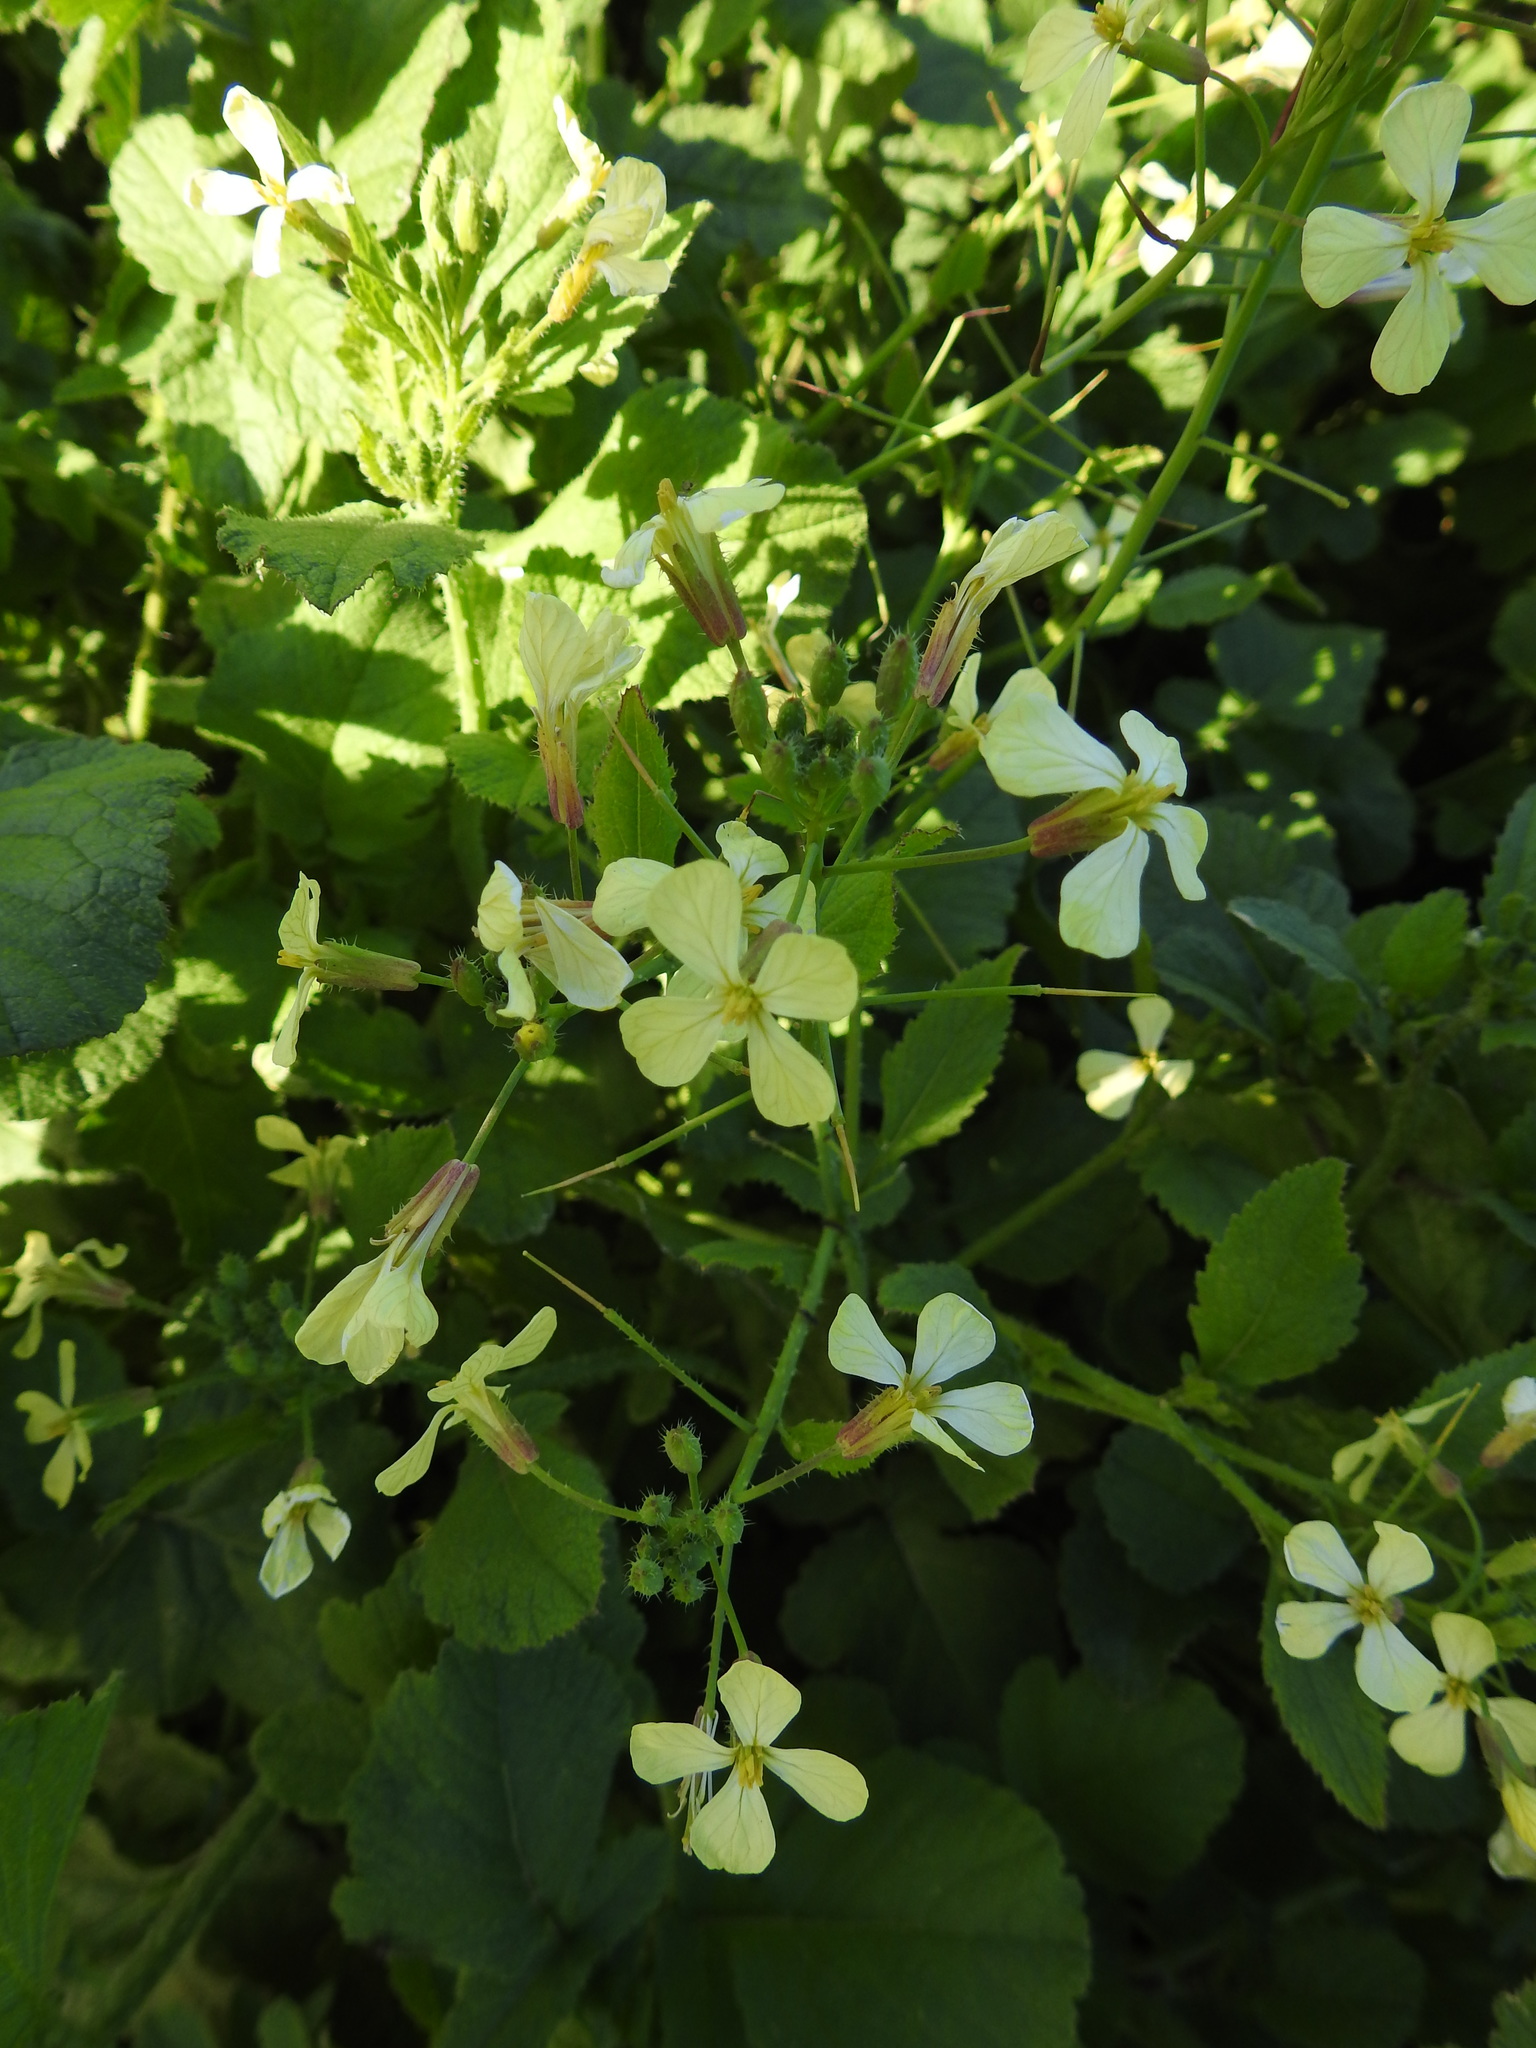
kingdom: Plantae
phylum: Tracheophyta
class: Magnoliopsida
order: Brassicales
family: Brassicaceae
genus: Raphanus
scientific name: Raphanus raphanistrum
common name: Wild radish
